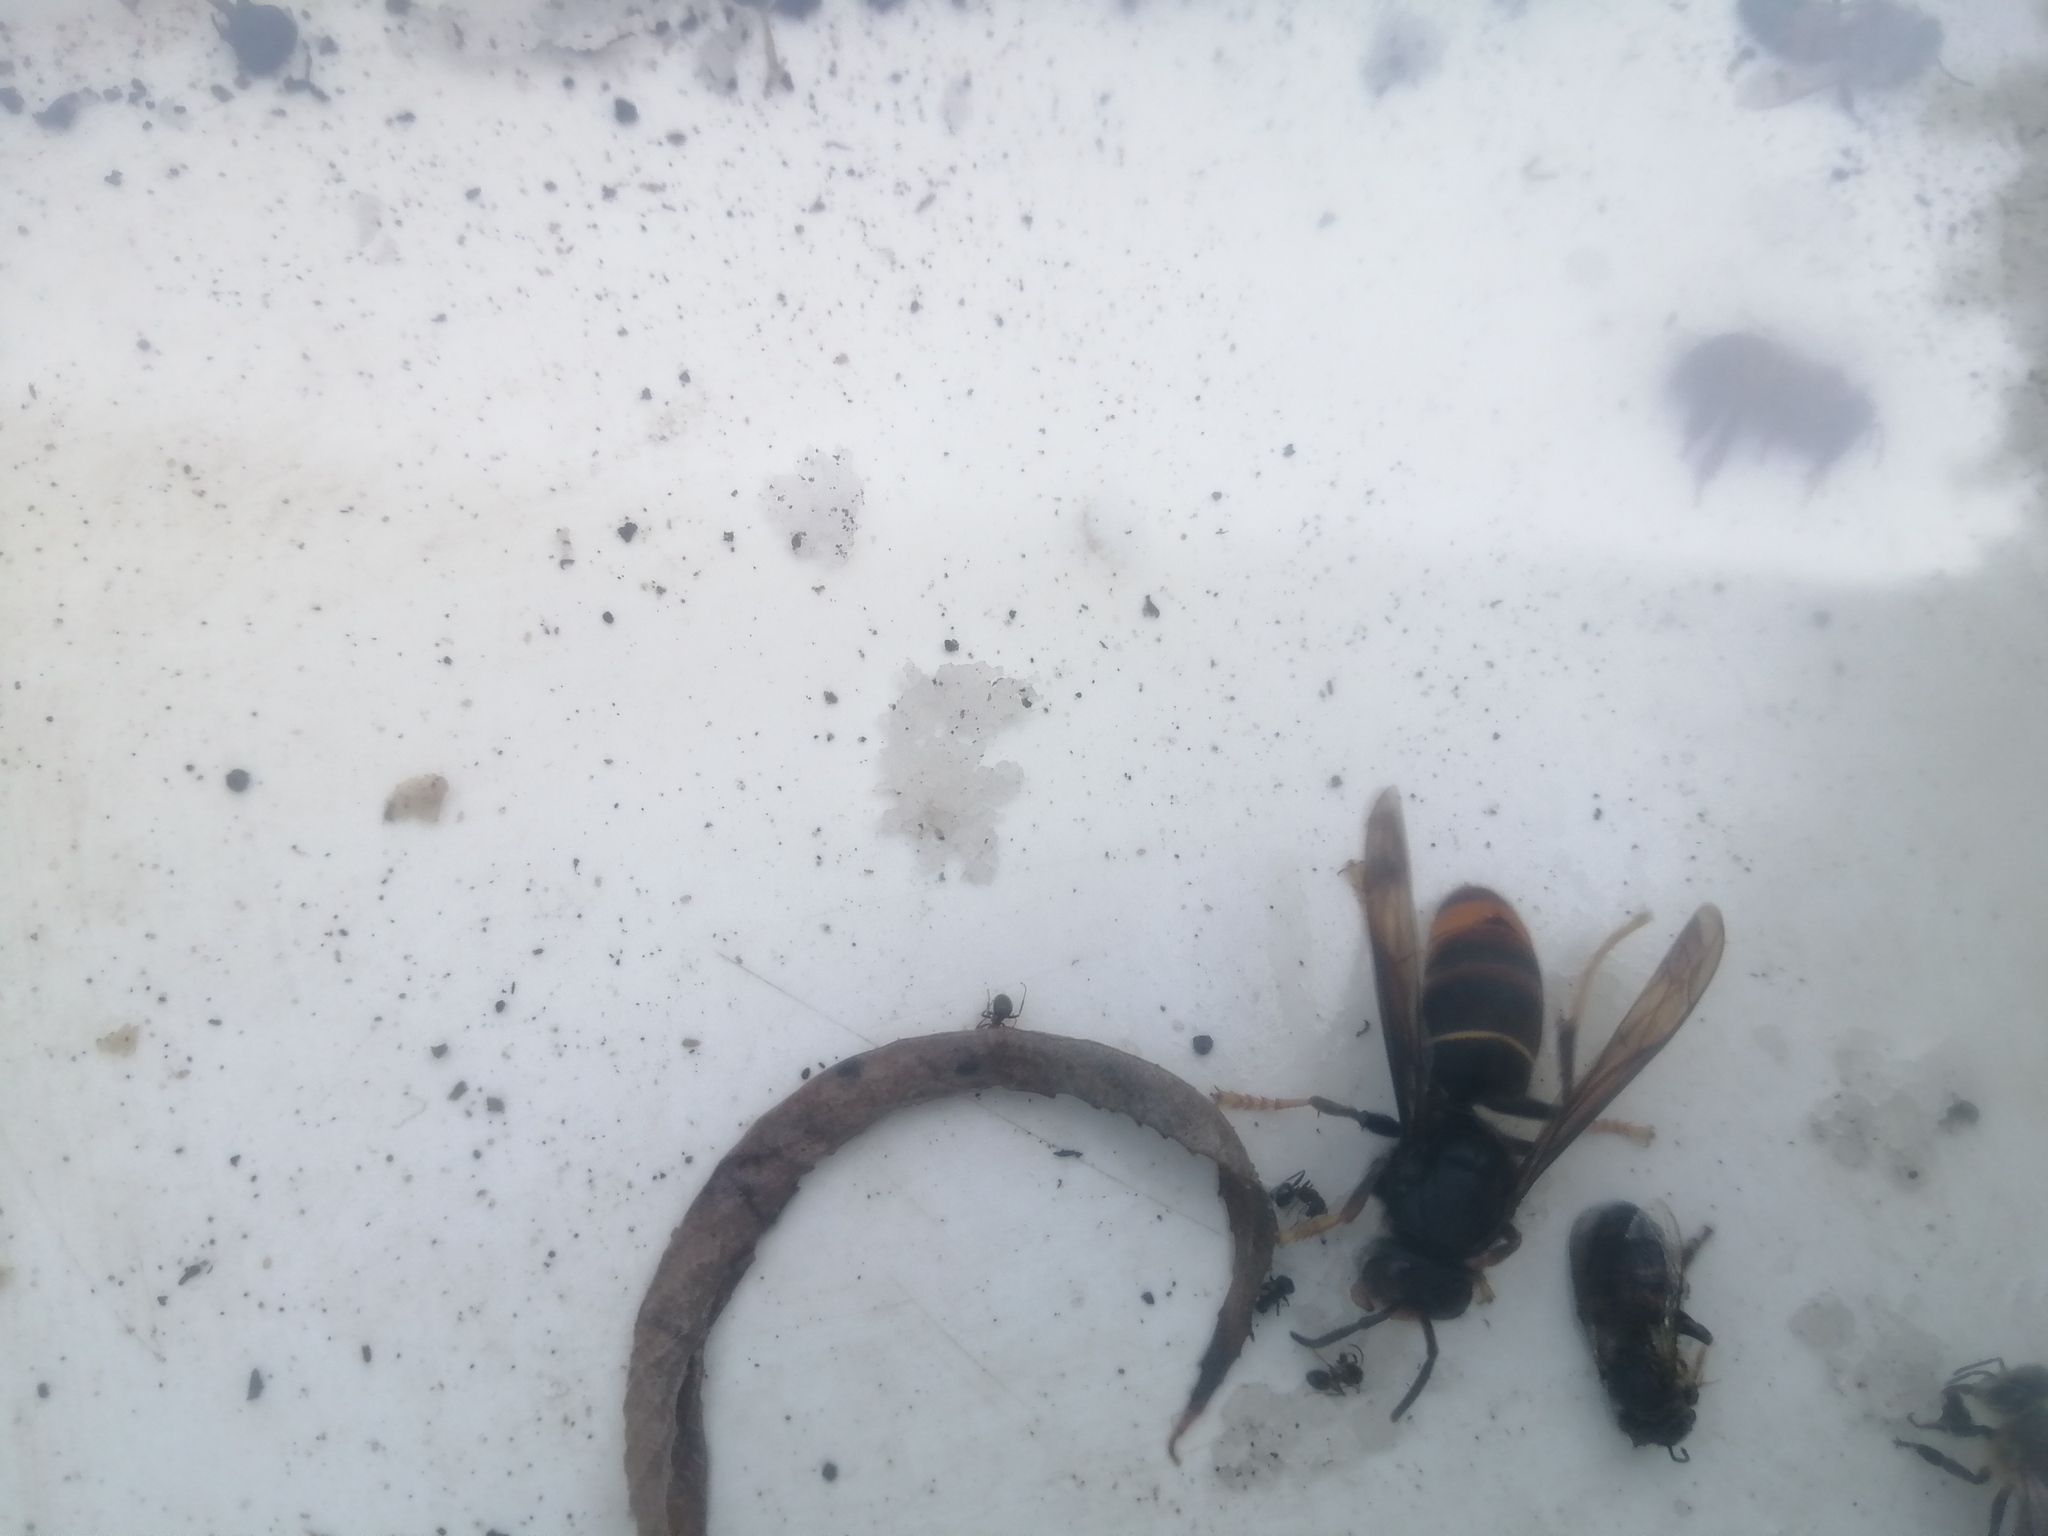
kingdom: Animalia
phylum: Arthropoda
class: Insecta
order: Hymenoptera
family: Vespidae
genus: Vespa
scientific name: Vespa velutina
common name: Asian hornet
